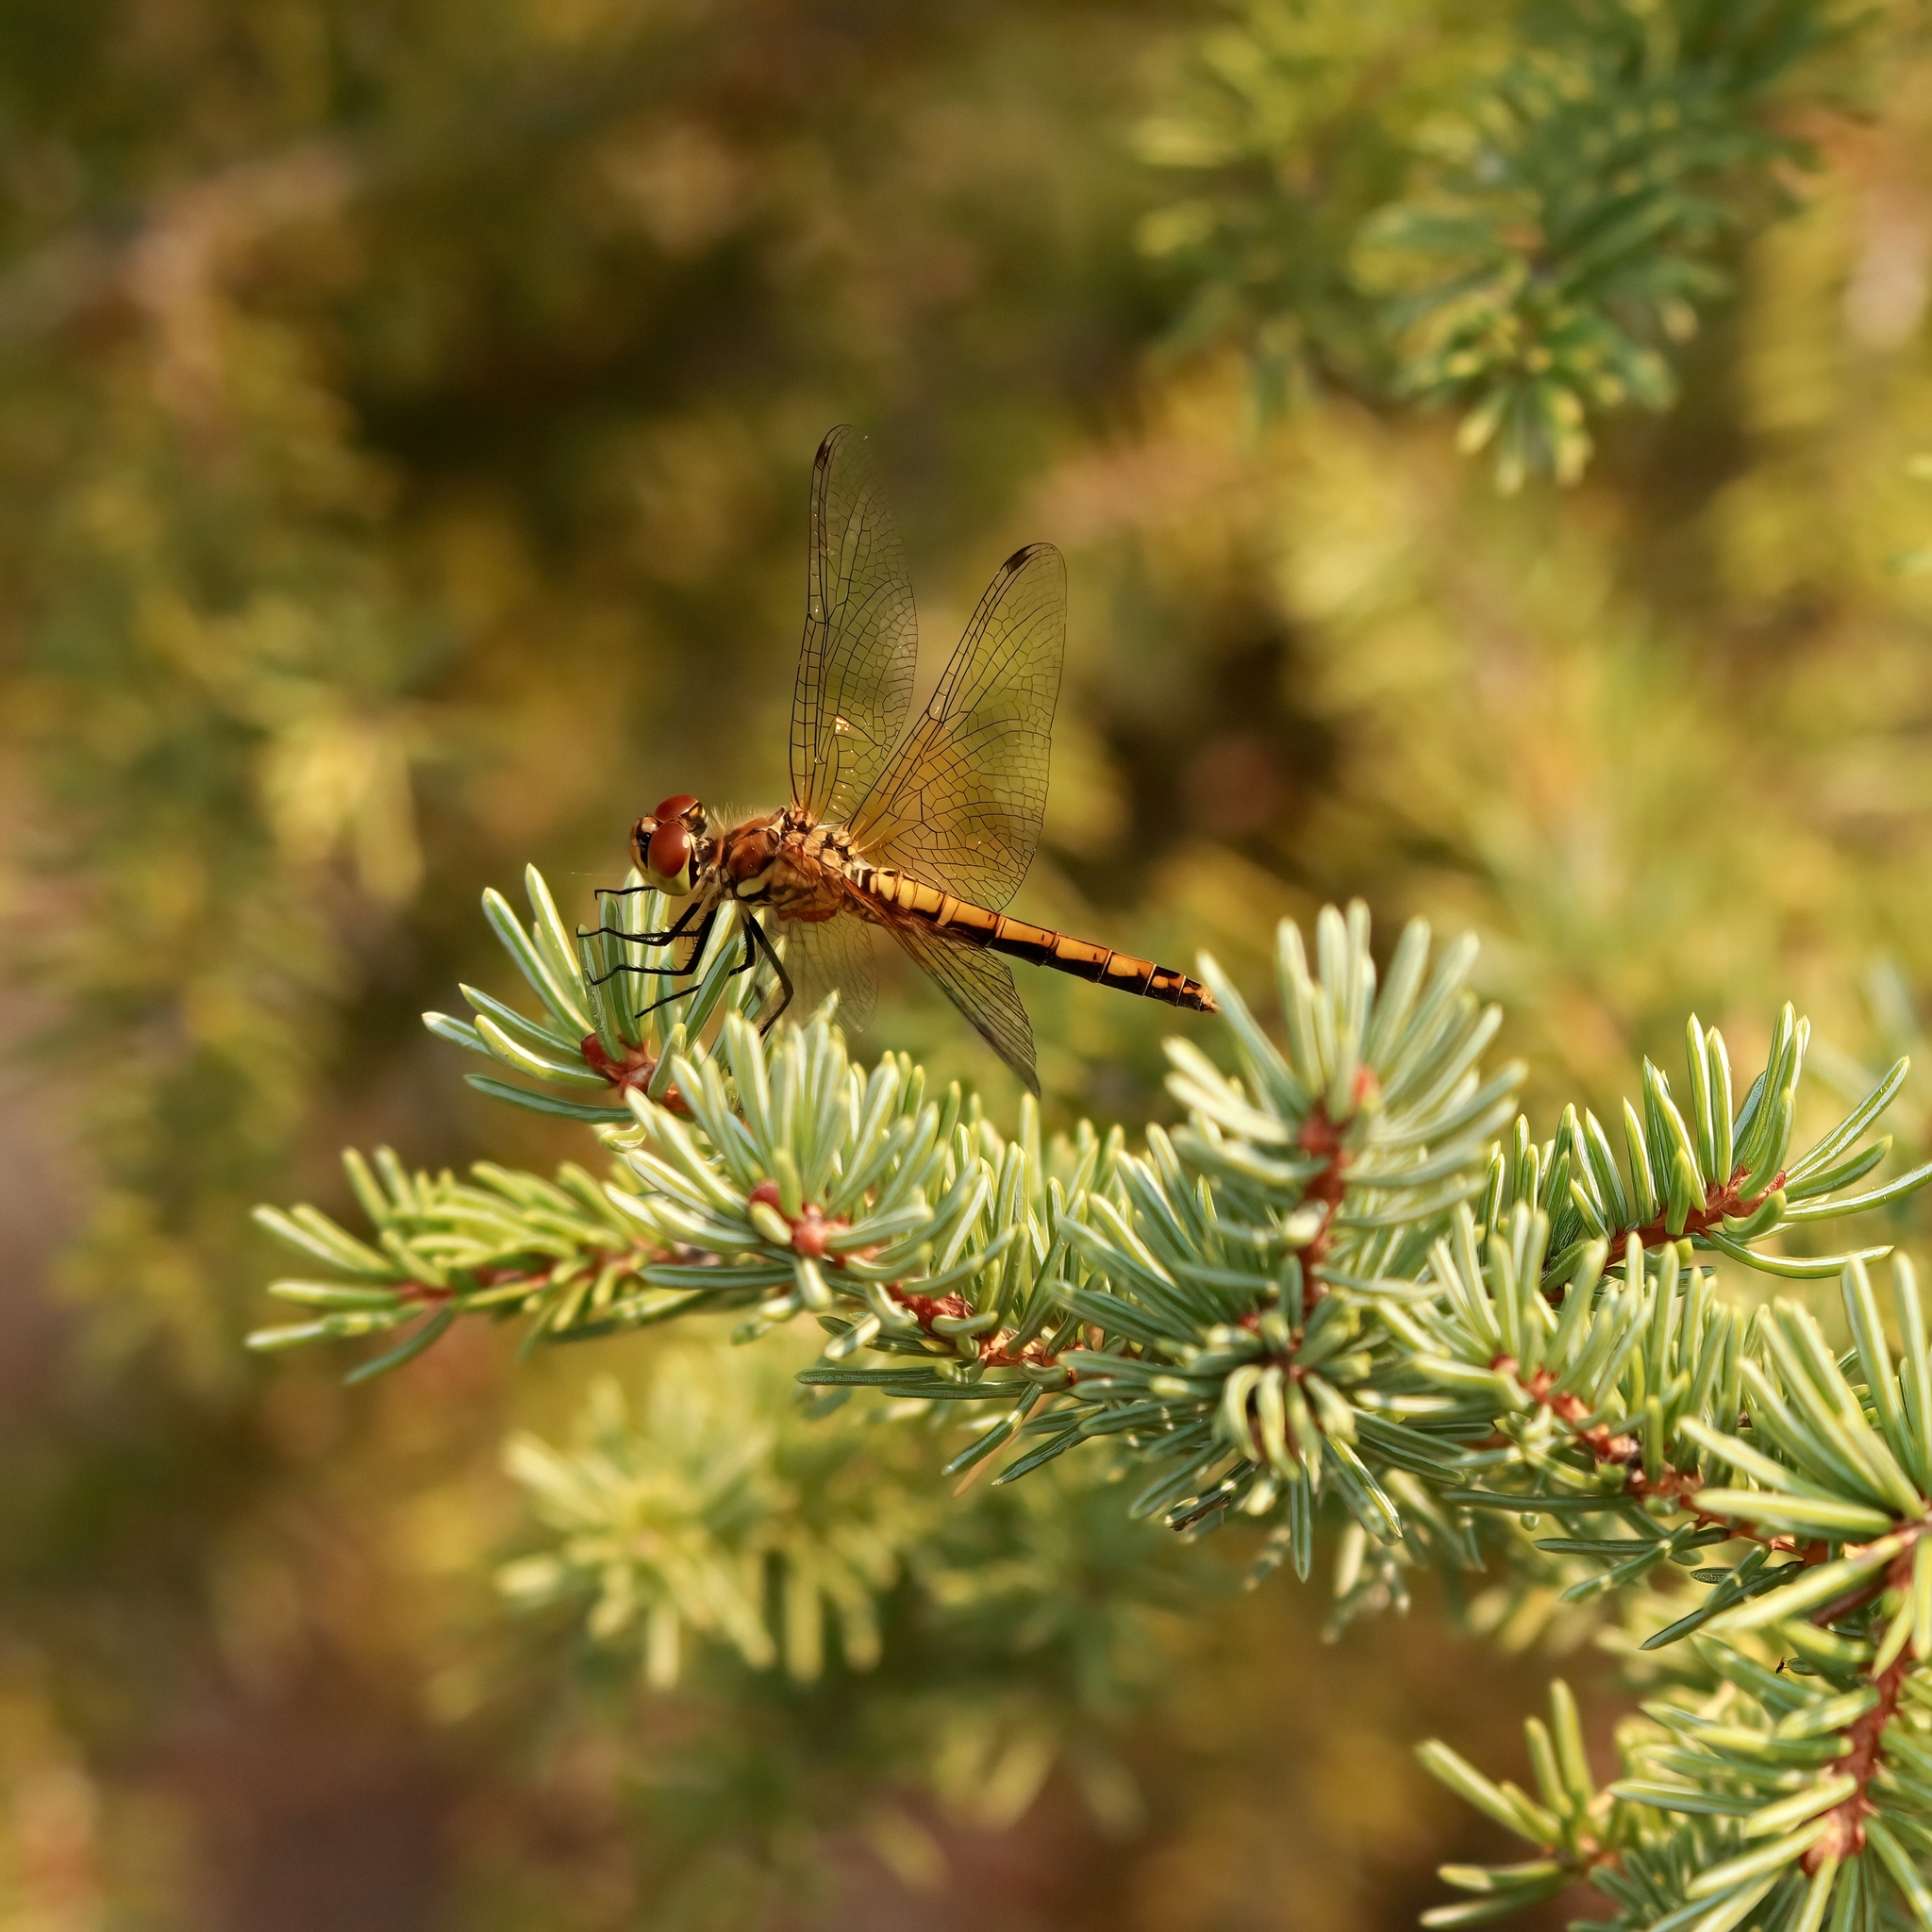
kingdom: Animalia
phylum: Arthropoda
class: Insecta
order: Odonata
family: Libellulidae
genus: Sympetrum
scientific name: Sympetrum semicinctum
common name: Band-winged meadowhawk
